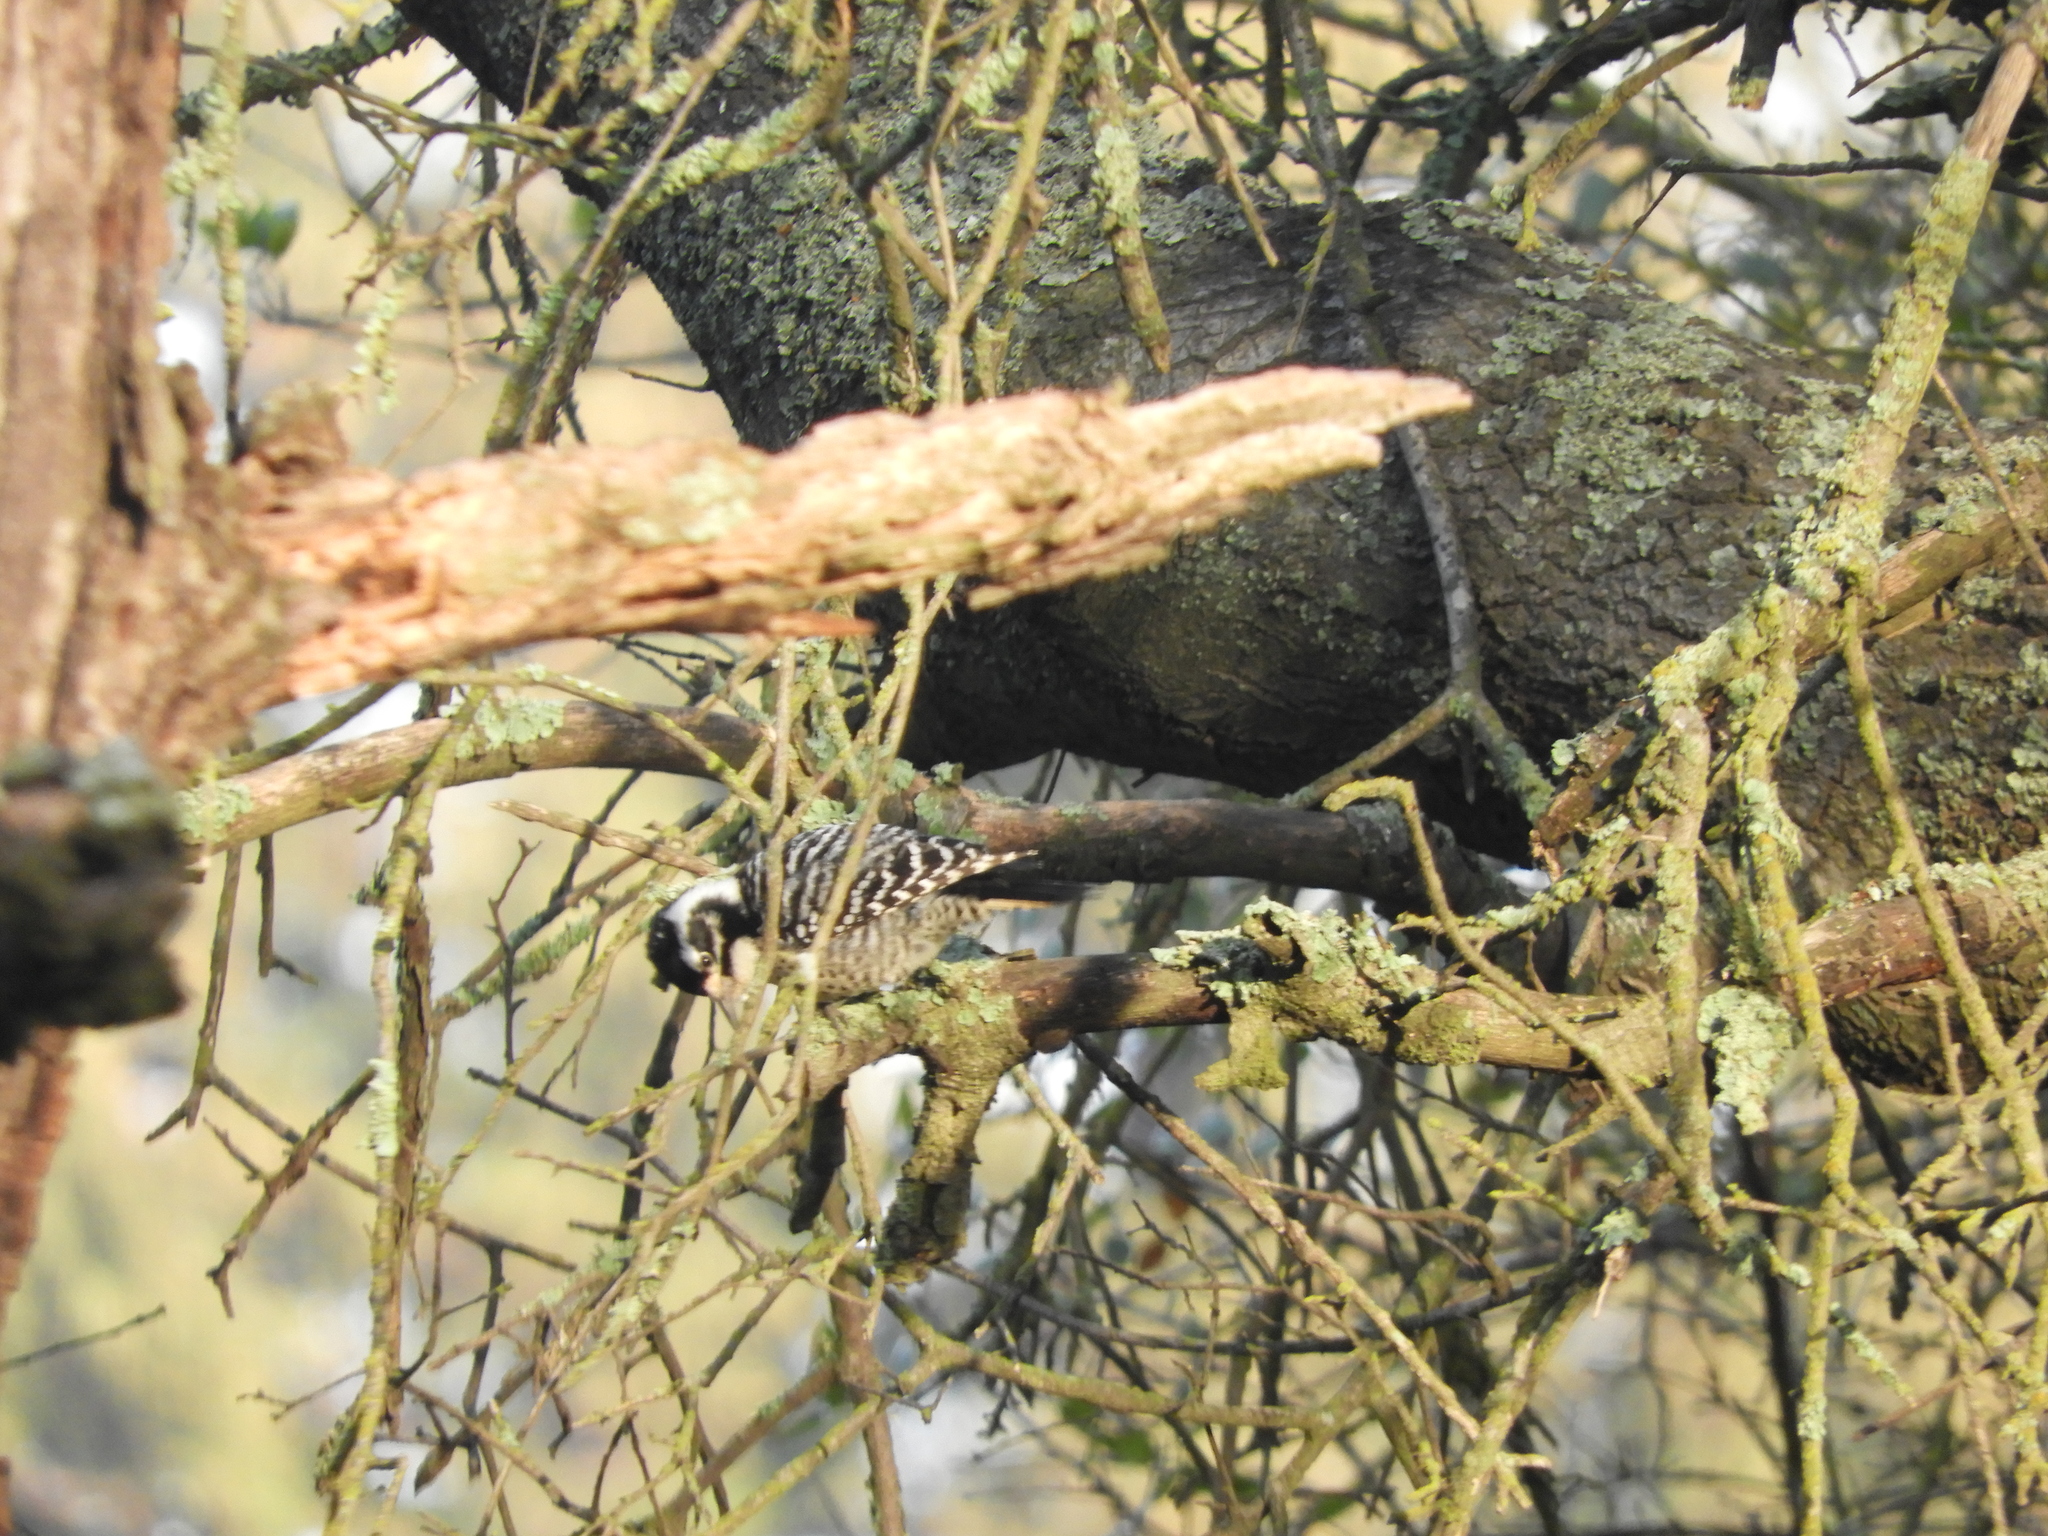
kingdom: Animalia
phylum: Chordata
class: Aves
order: Piciformes
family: Picidae
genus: Dryobates
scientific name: Dryobates nuttallii
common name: Nuttall's woodpecker
